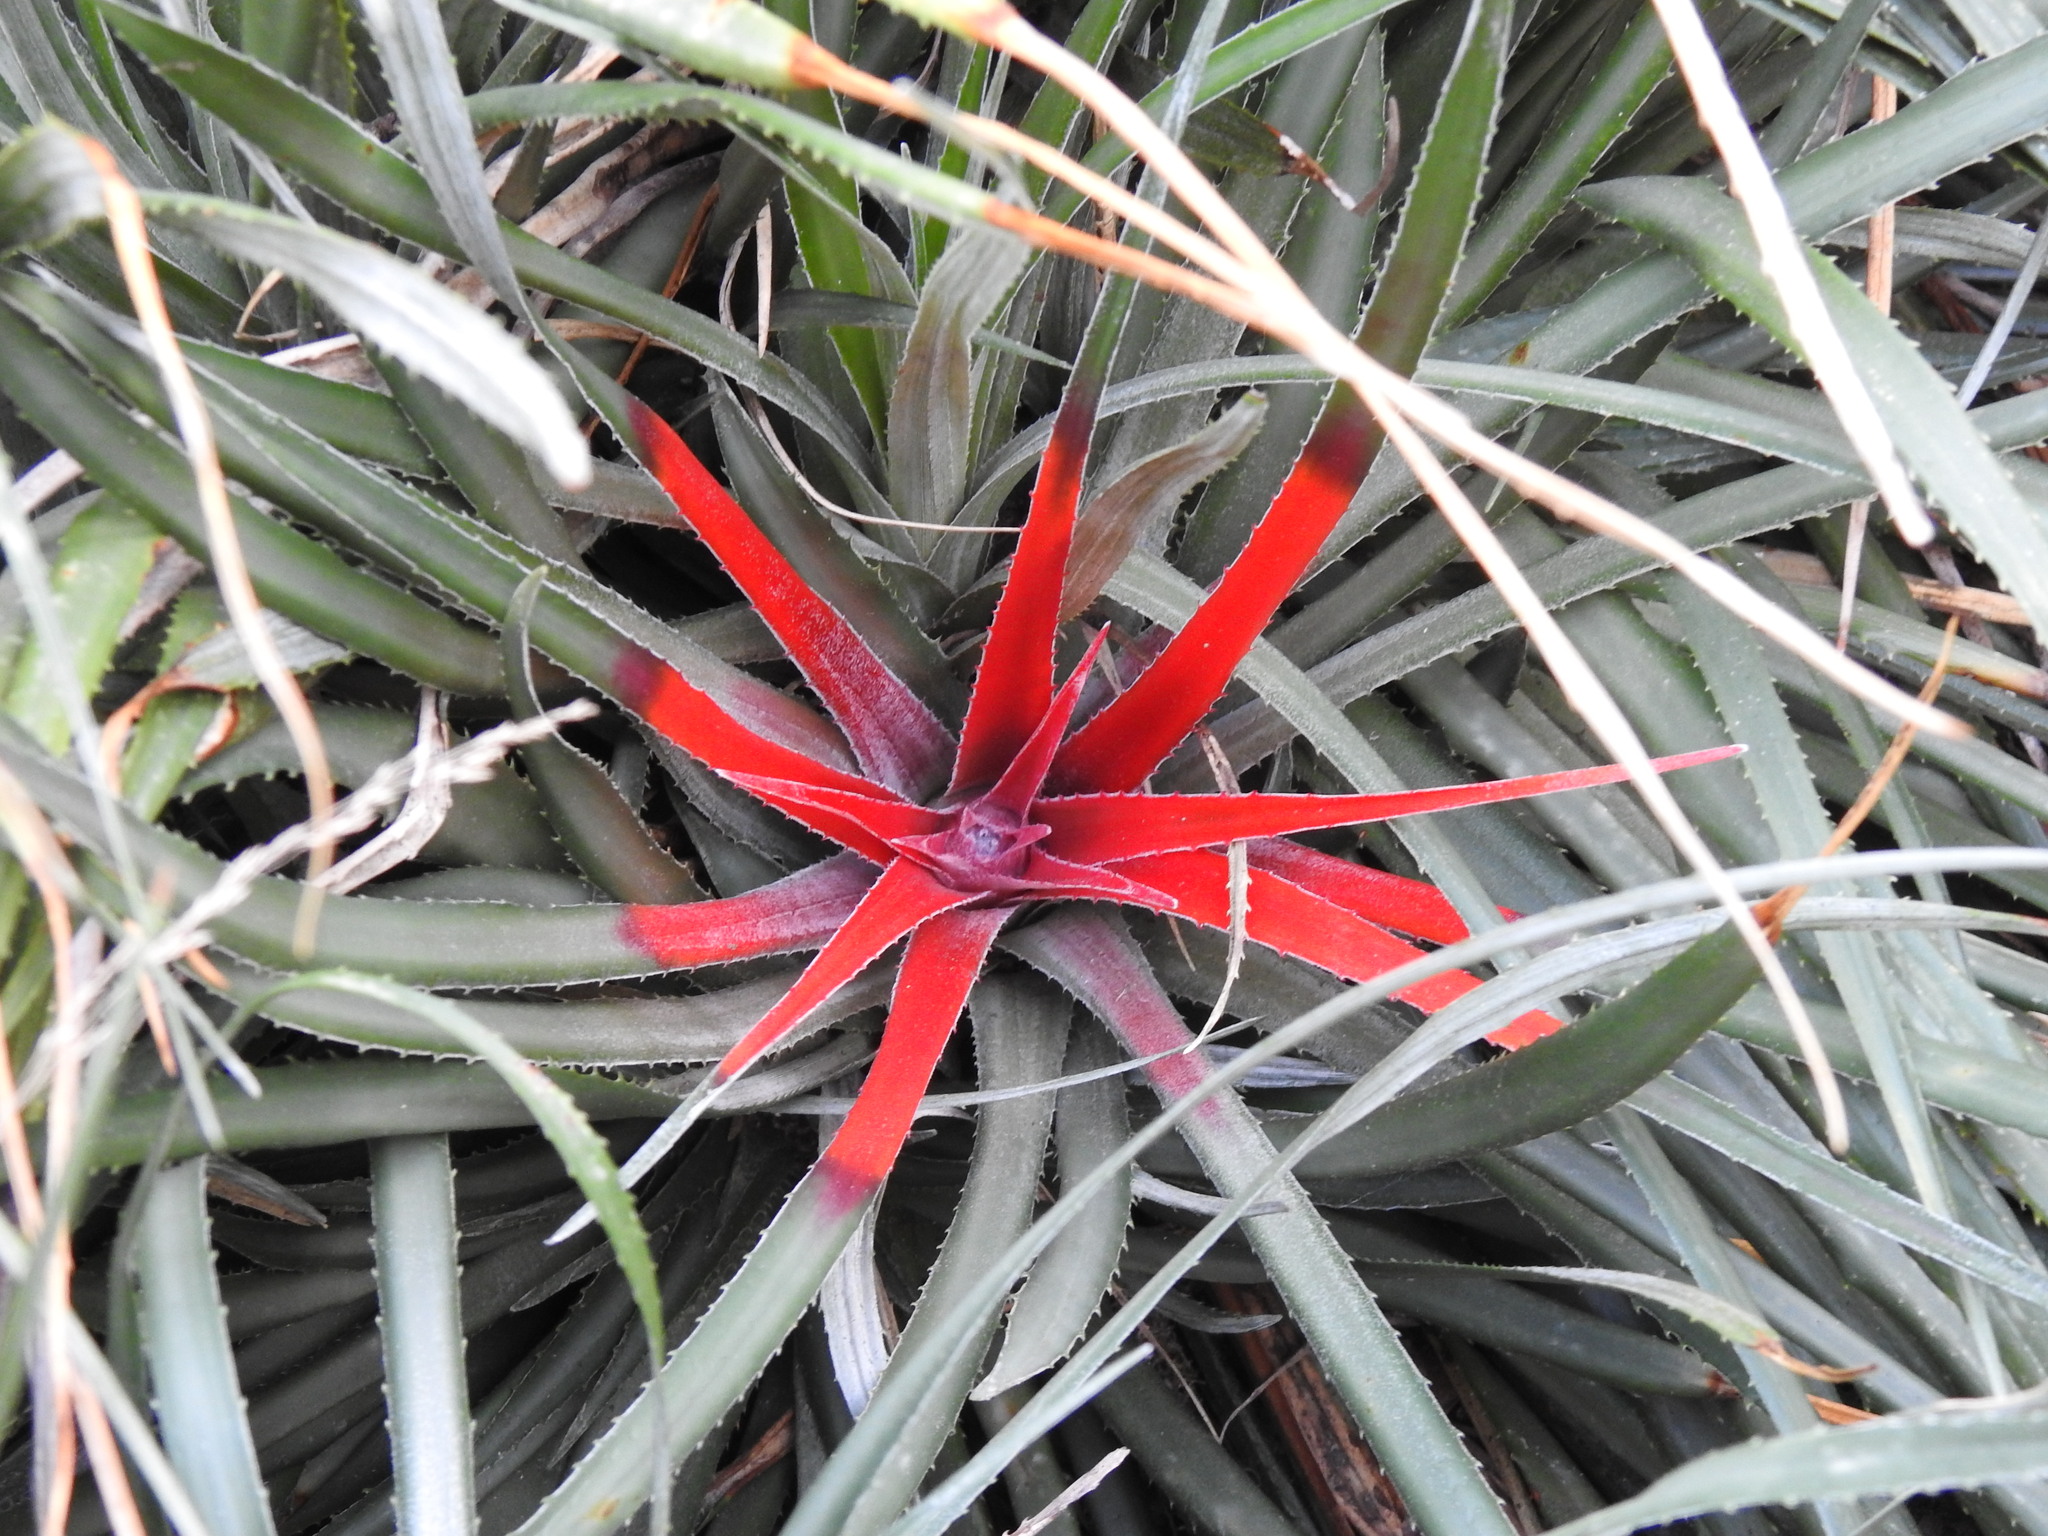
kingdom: Plantae
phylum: Tracheophyta
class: Liliopsida
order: Poales
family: Bromeliaceae
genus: Fascicularia
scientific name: Fascicularia bicolor
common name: Rhodostachys
